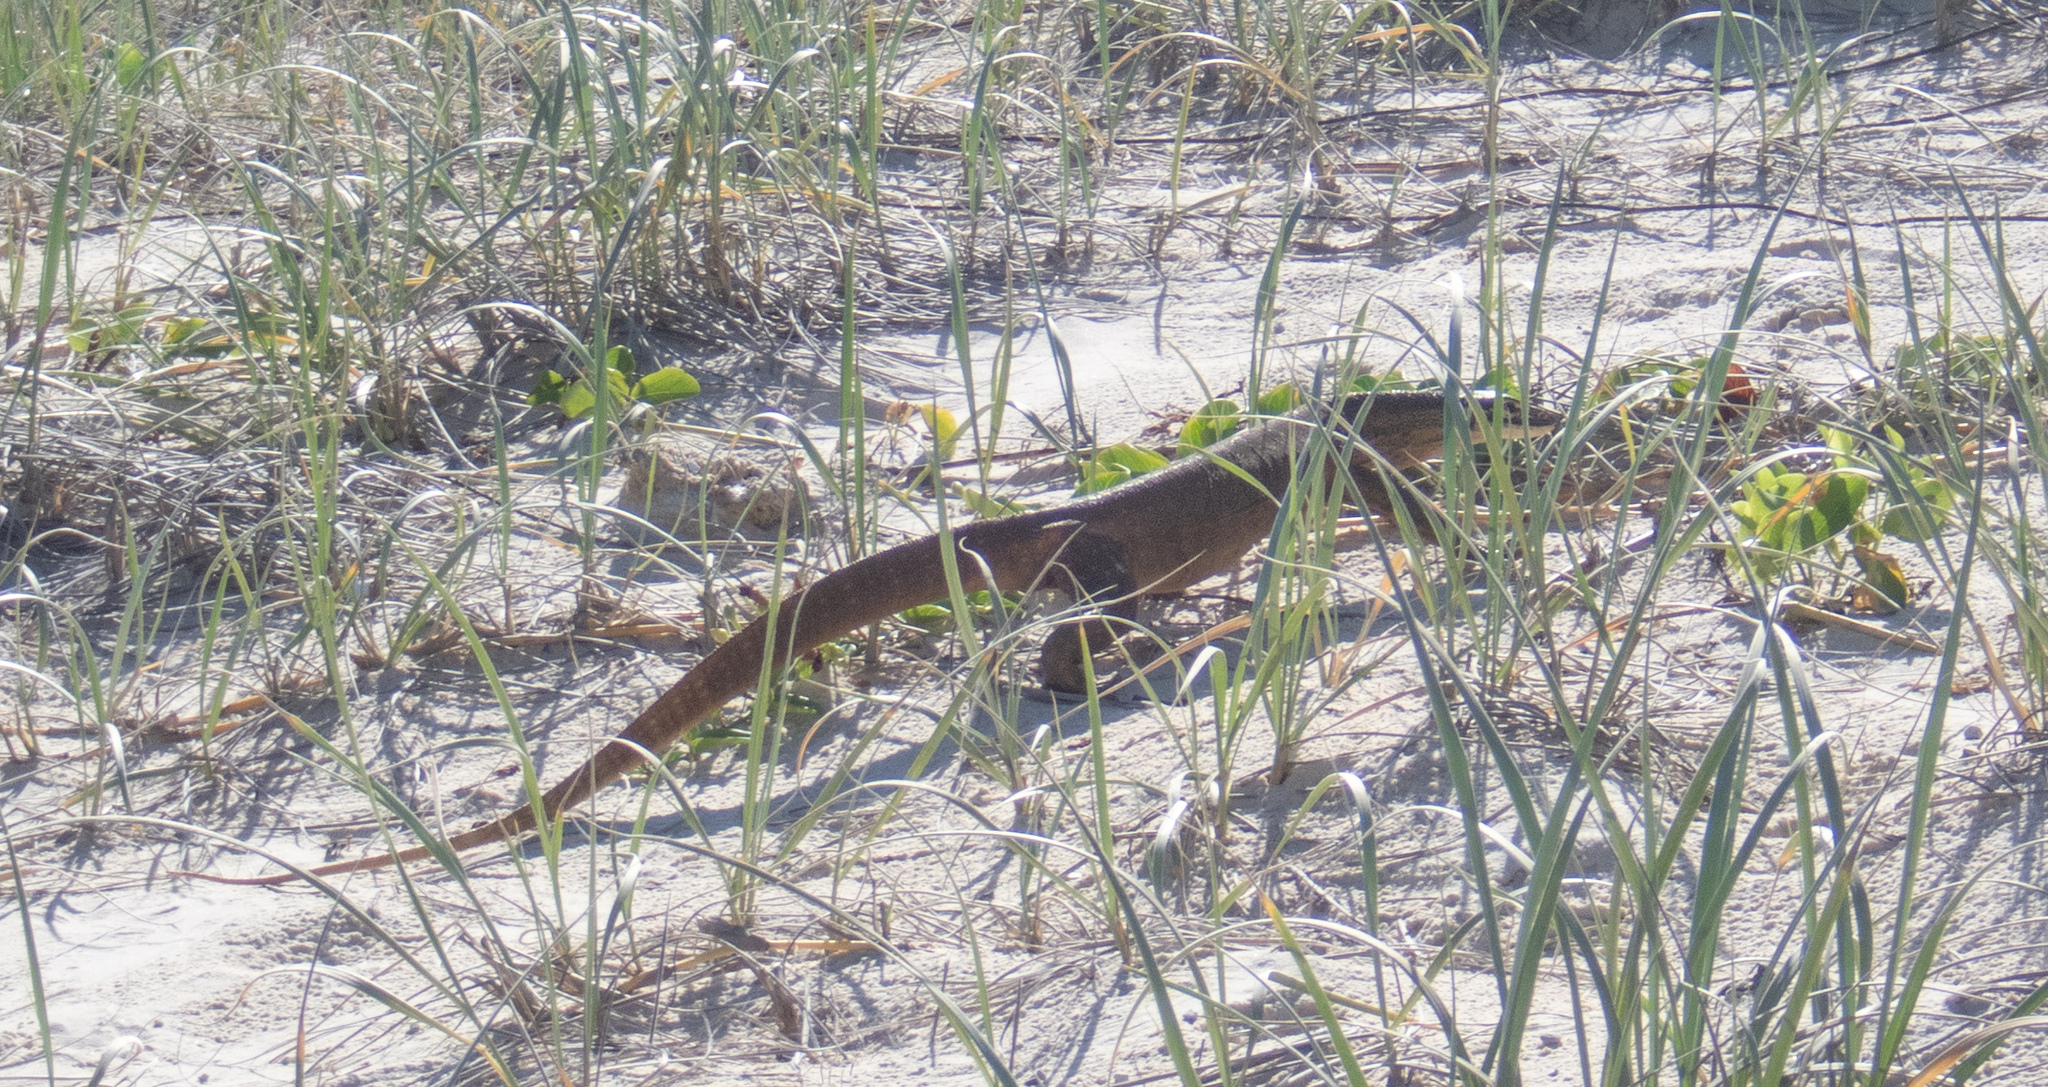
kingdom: Animalia
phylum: Chordata
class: Squamata
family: Varanidae
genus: Varanus
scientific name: Varanus panoptes
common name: Yellow-spotted monitor
